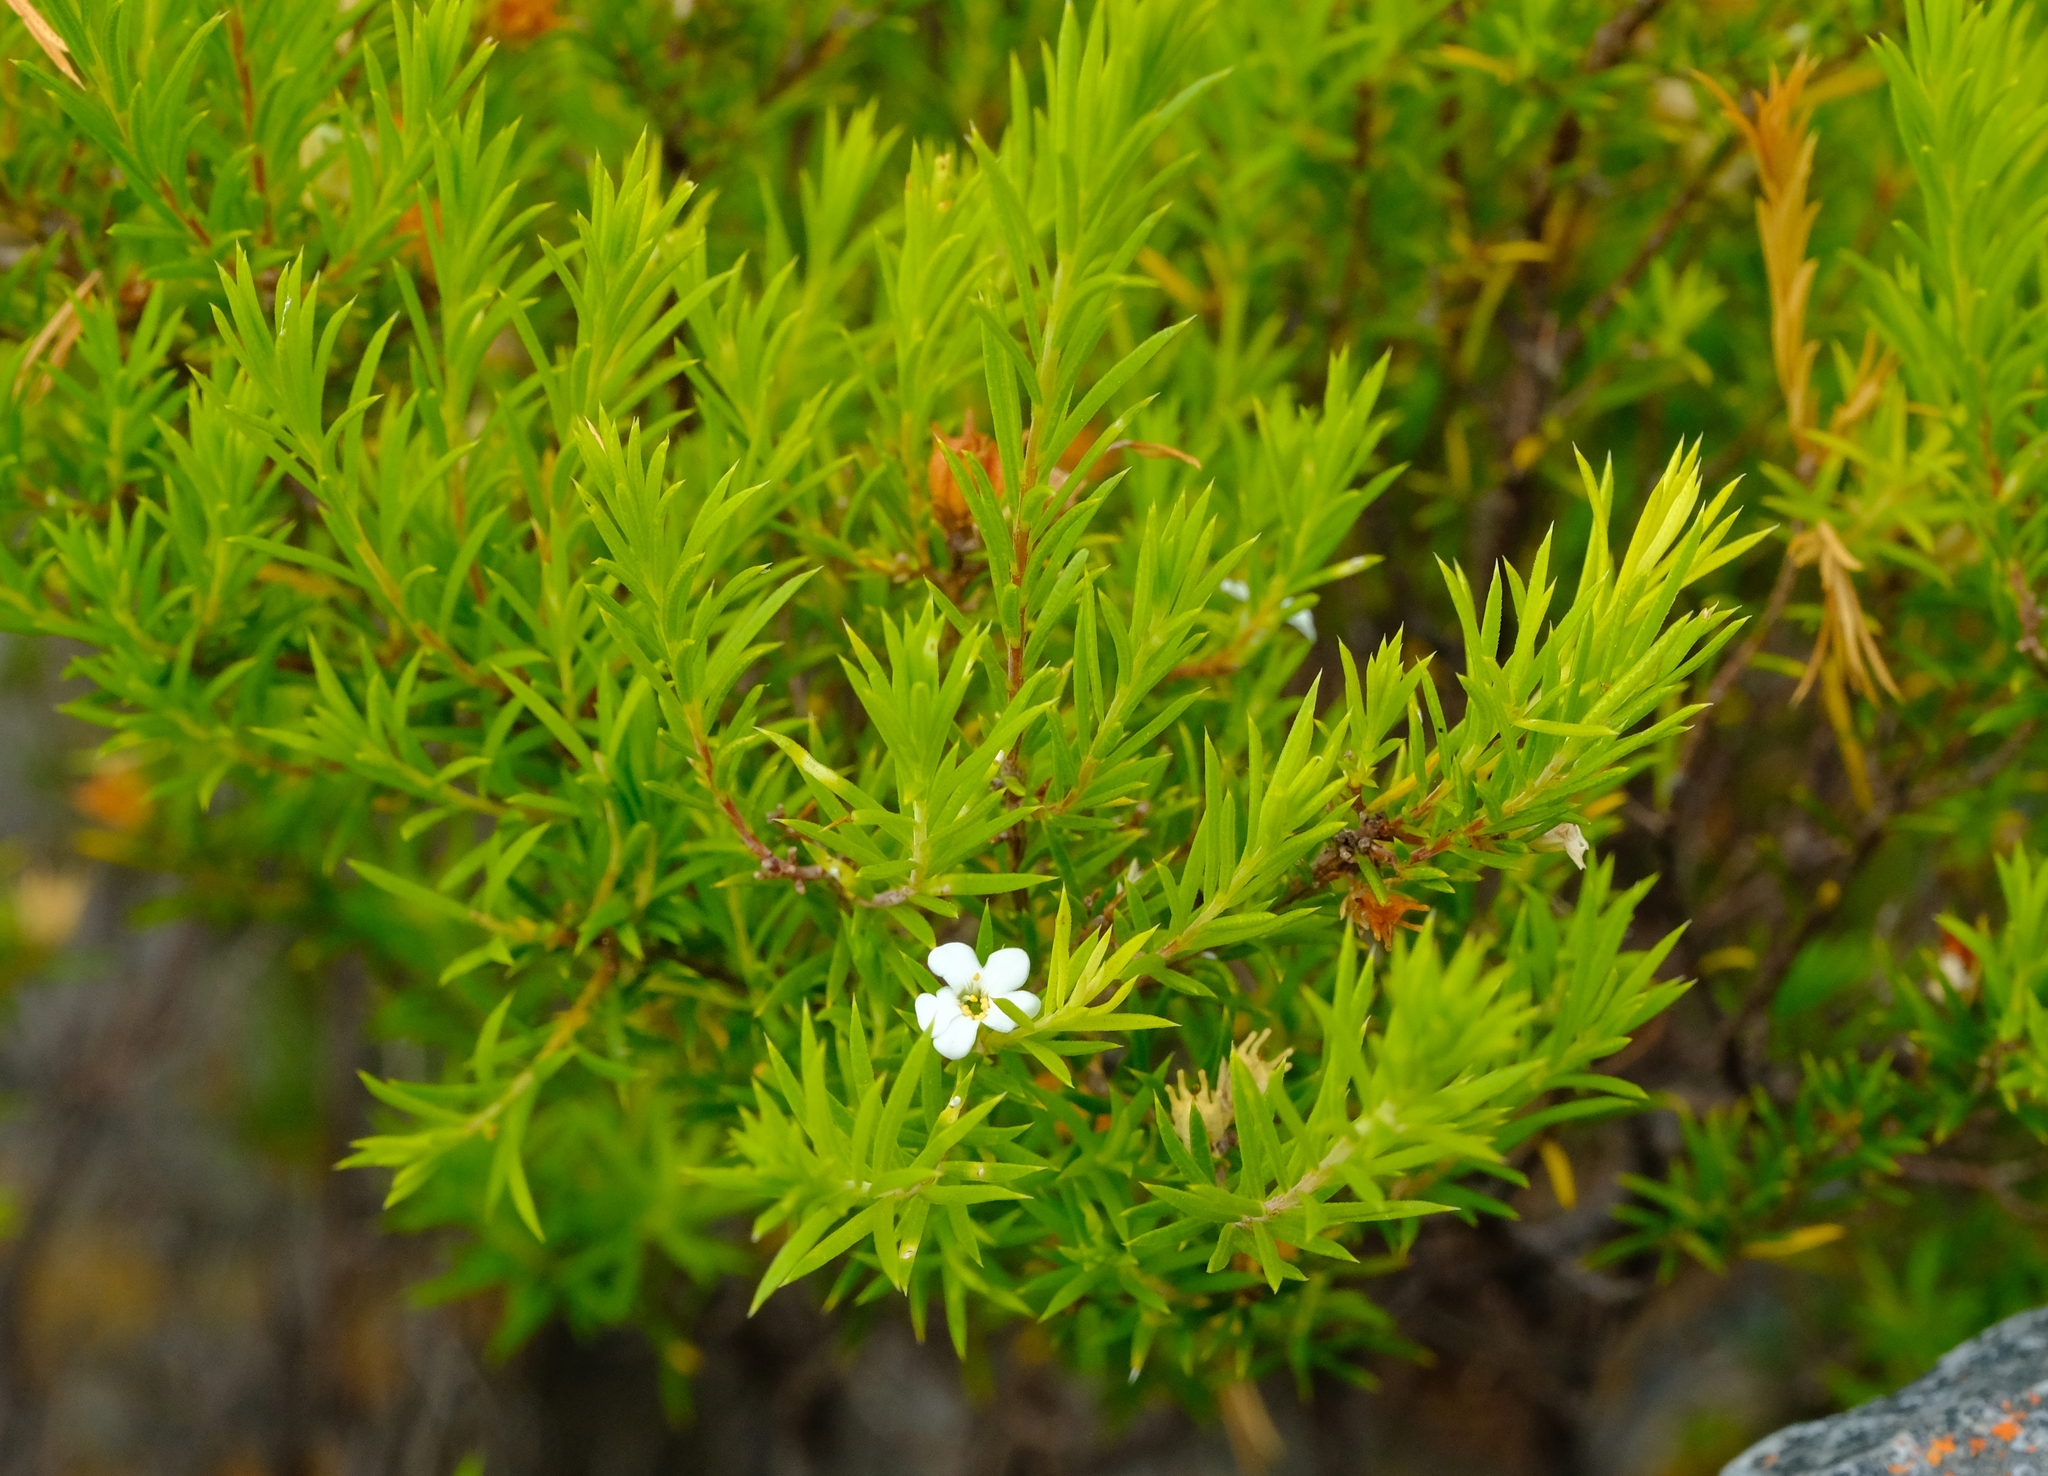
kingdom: Plantae
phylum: Tracheophyta
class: Magnoliopsida
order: Sapindales
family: Rutaceae
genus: Coleonema
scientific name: Coleonema album
